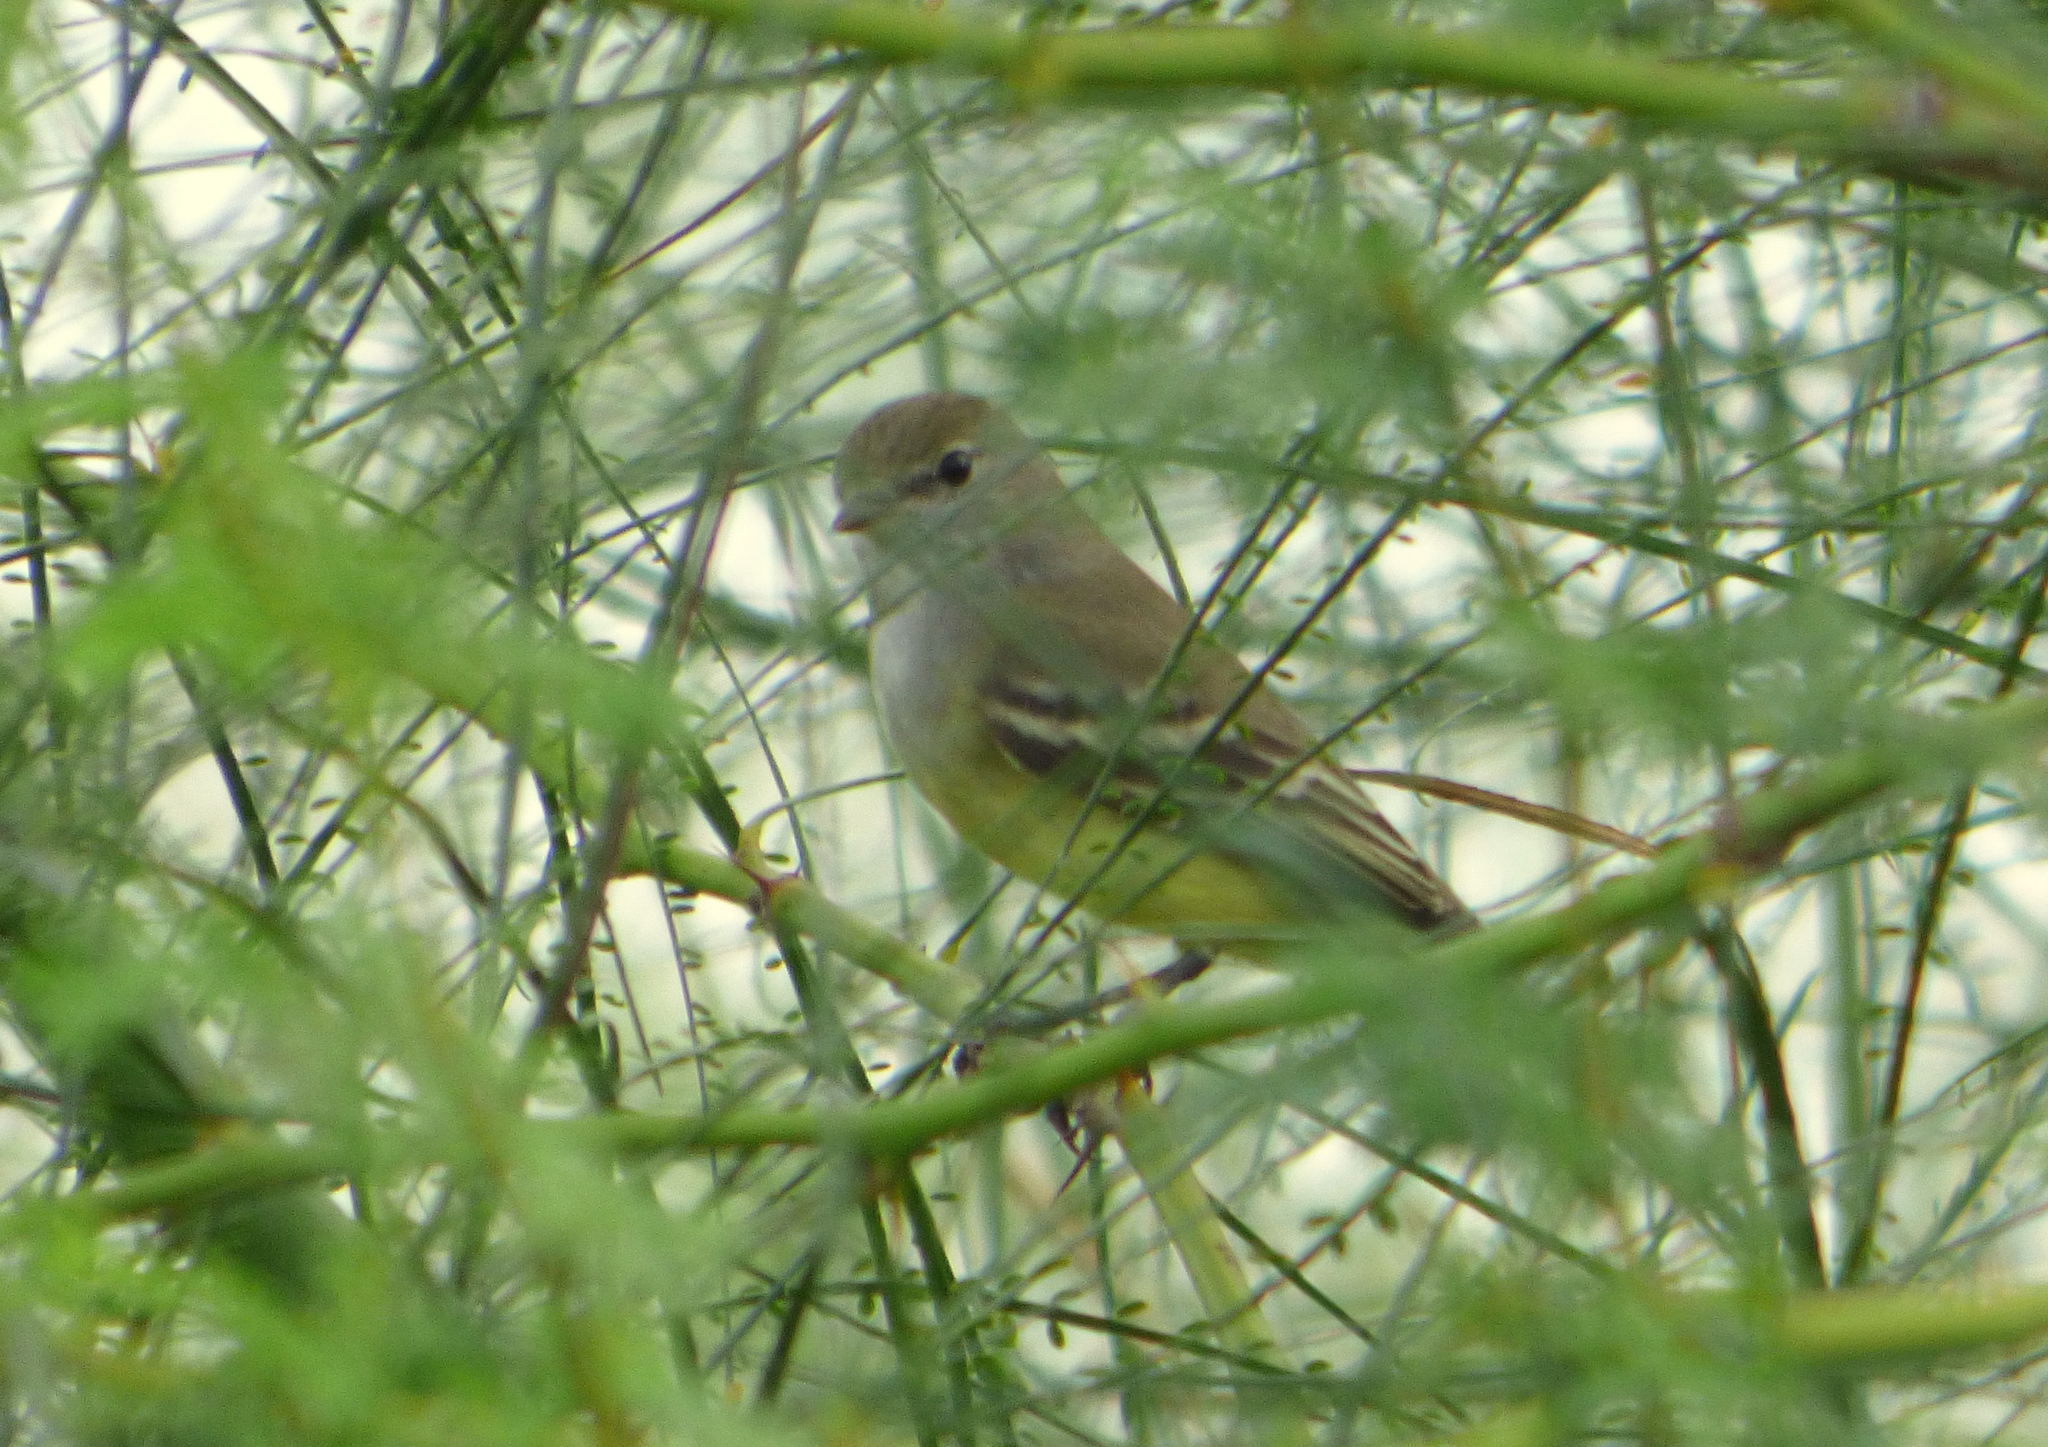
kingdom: Animalia
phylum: Chordata
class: Aves
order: Passeriformes
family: Tyrannidae
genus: Sublegatus
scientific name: Sublegatus modestus
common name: Southern scrub flycatcher
